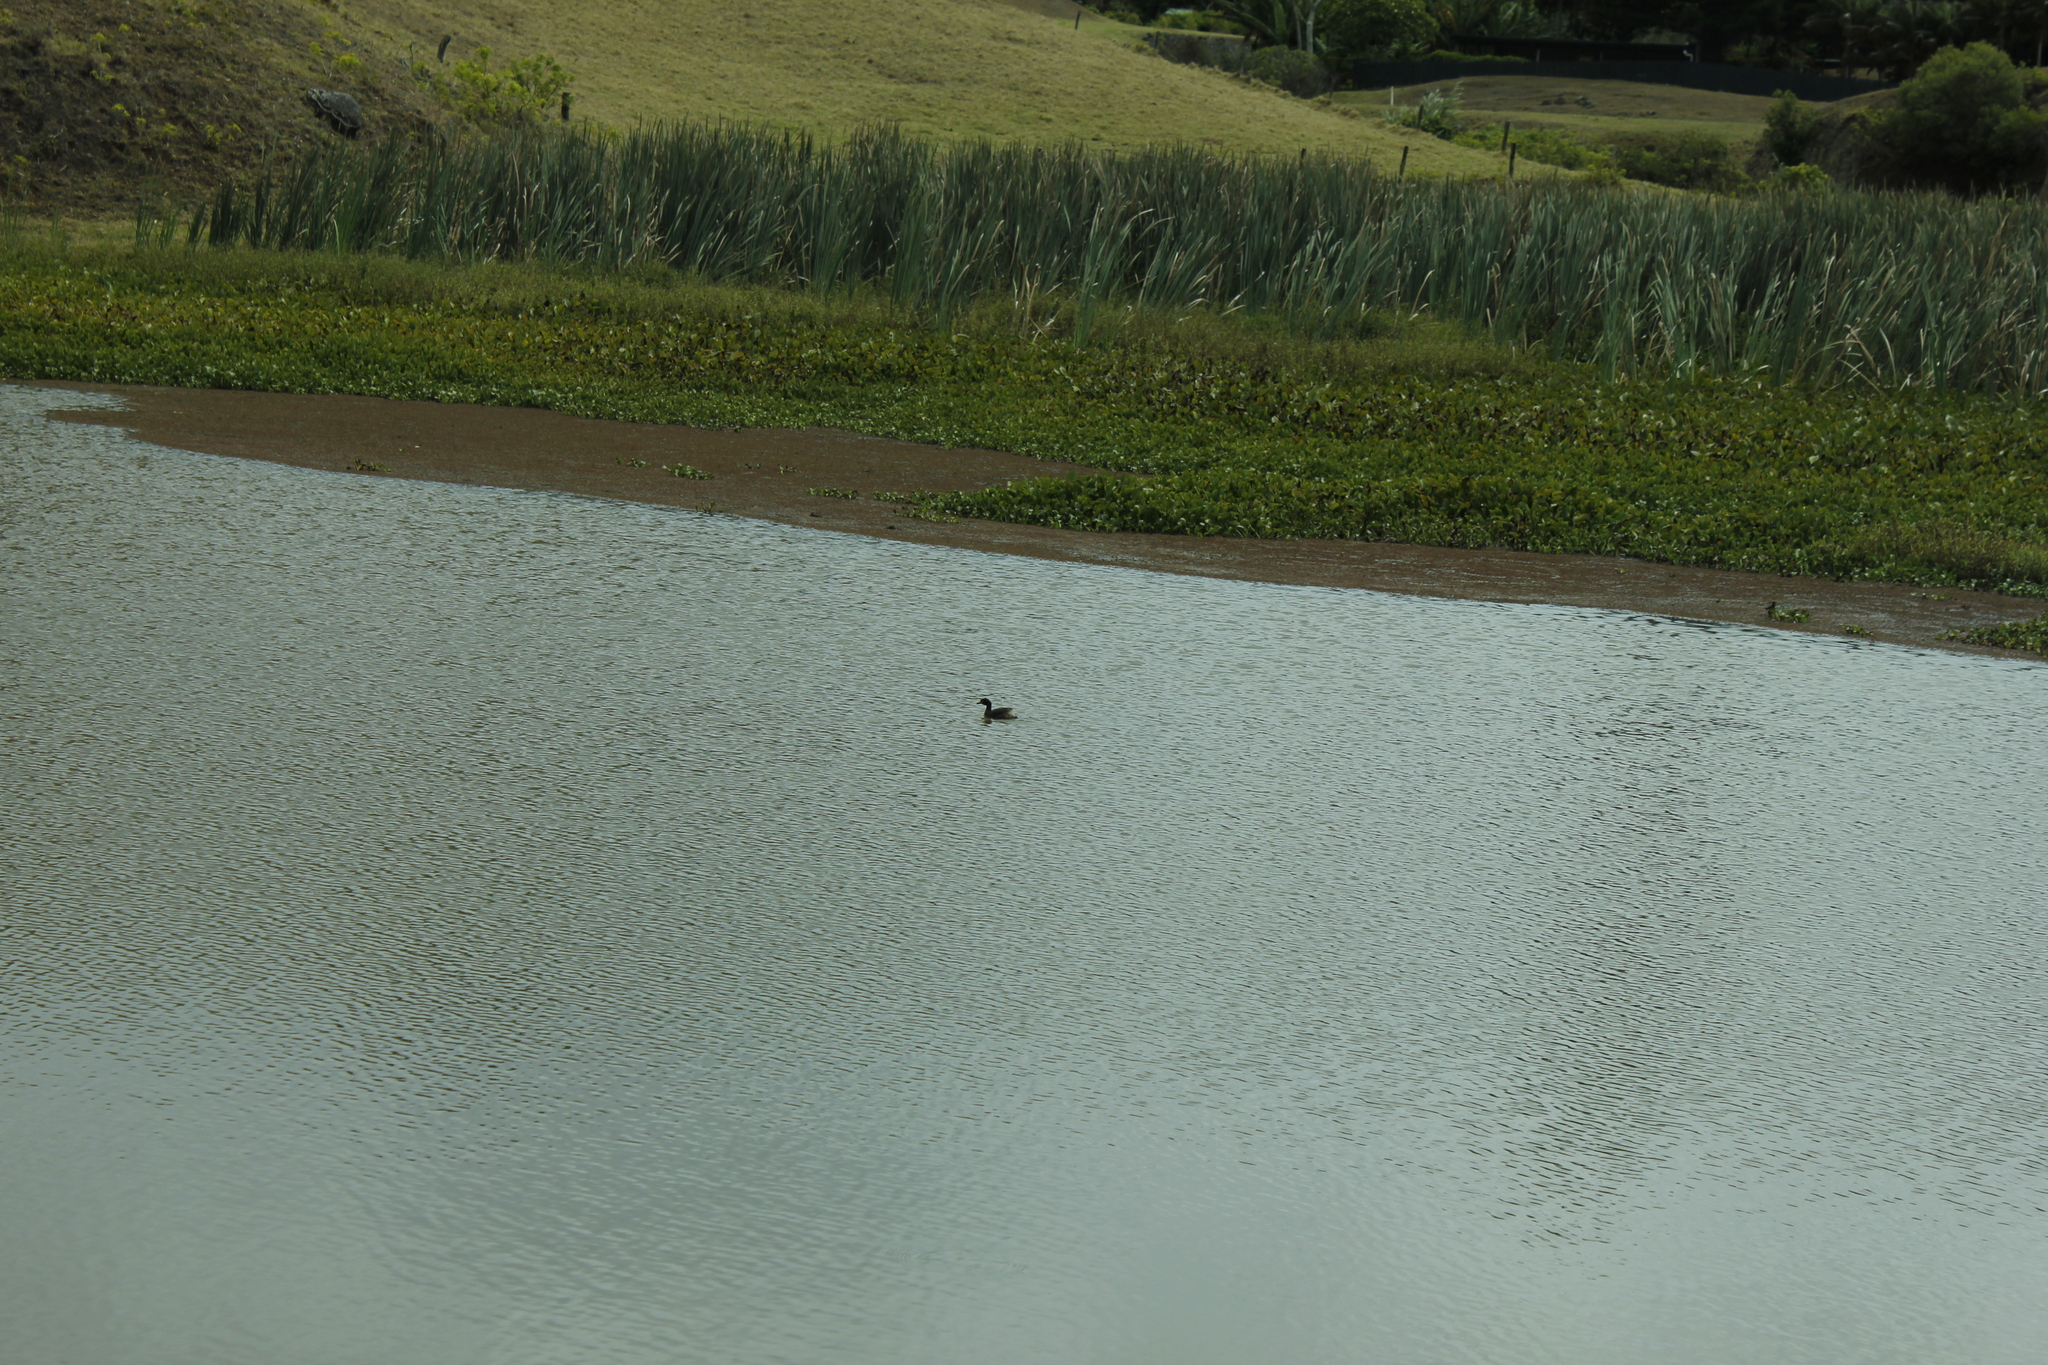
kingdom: Animalia
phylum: Chordata
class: Aves
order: Podicipediformes
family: Podicipedidae
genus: Tachybaptus
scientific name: Tachybaptus novaehollandiae
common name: Australasian grebe
